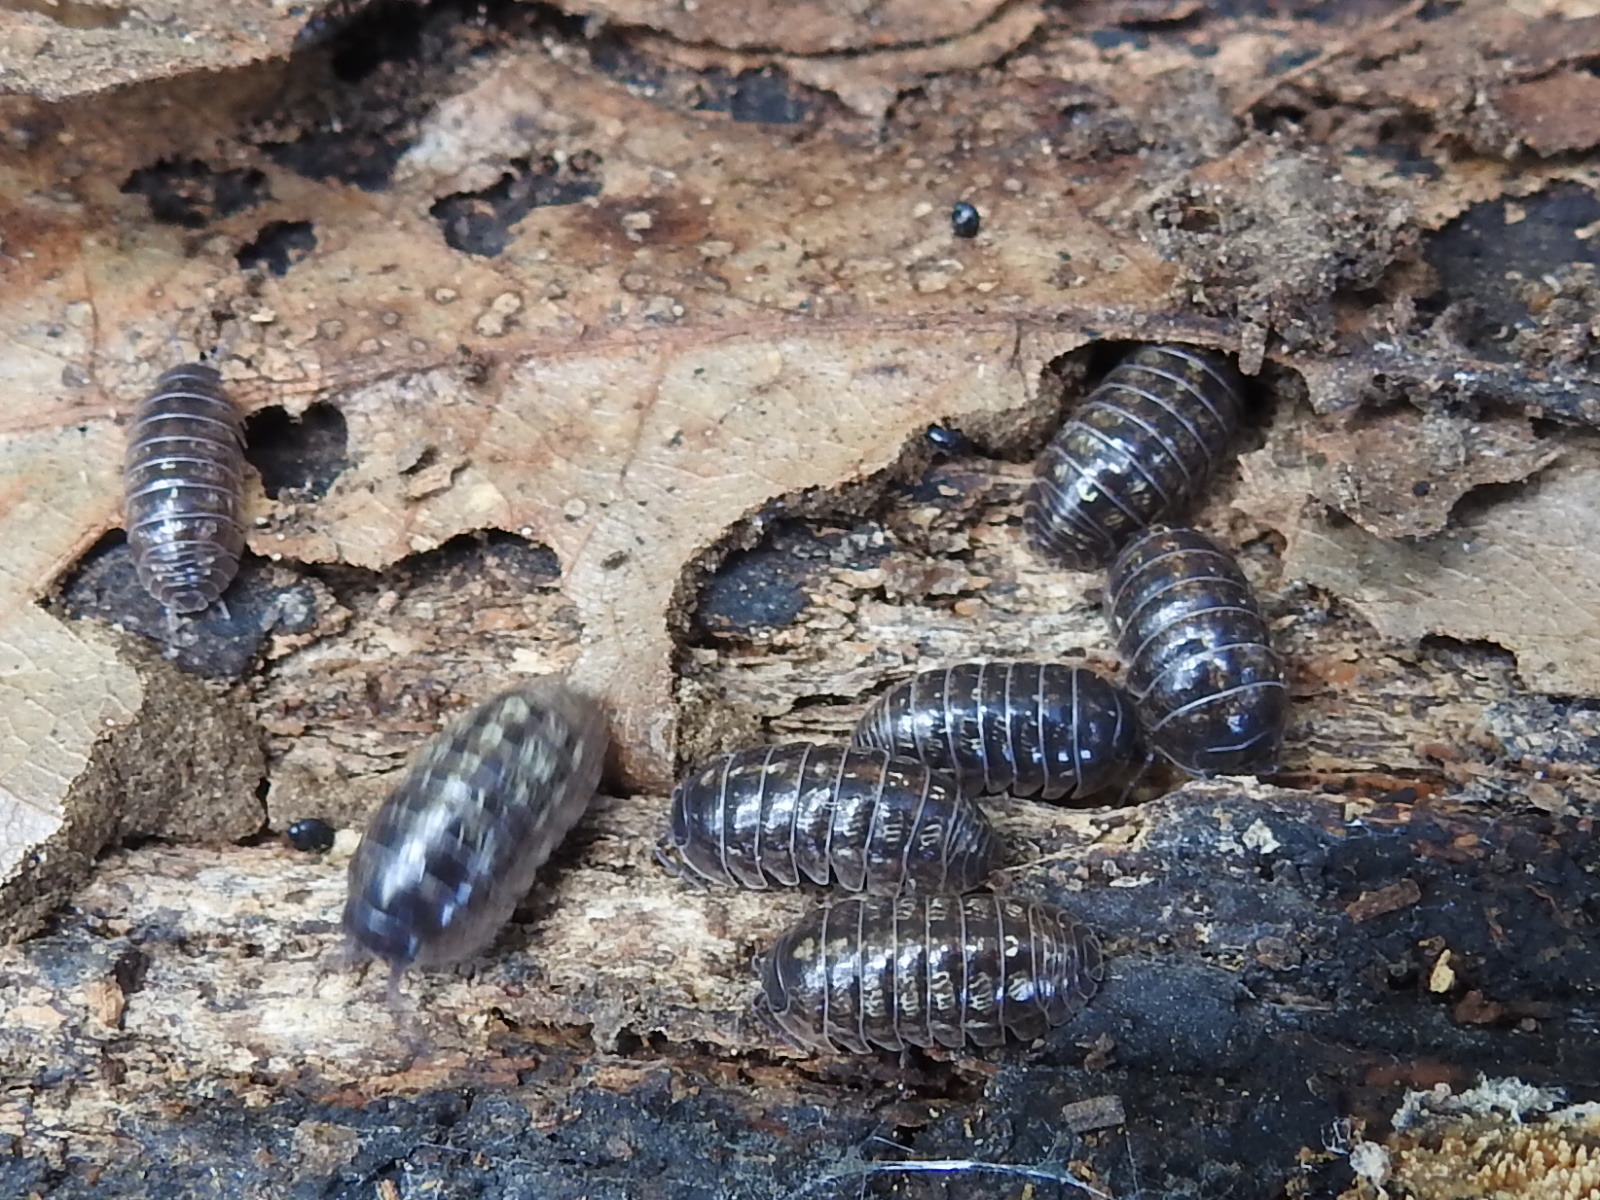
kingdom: Animalia
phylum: Arthropoda
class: Malacostraca
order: Isopoda
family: Armadillidiidae
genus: Armadillidium
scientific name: Armadillidium vulgare
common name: Common pill woodlouse
